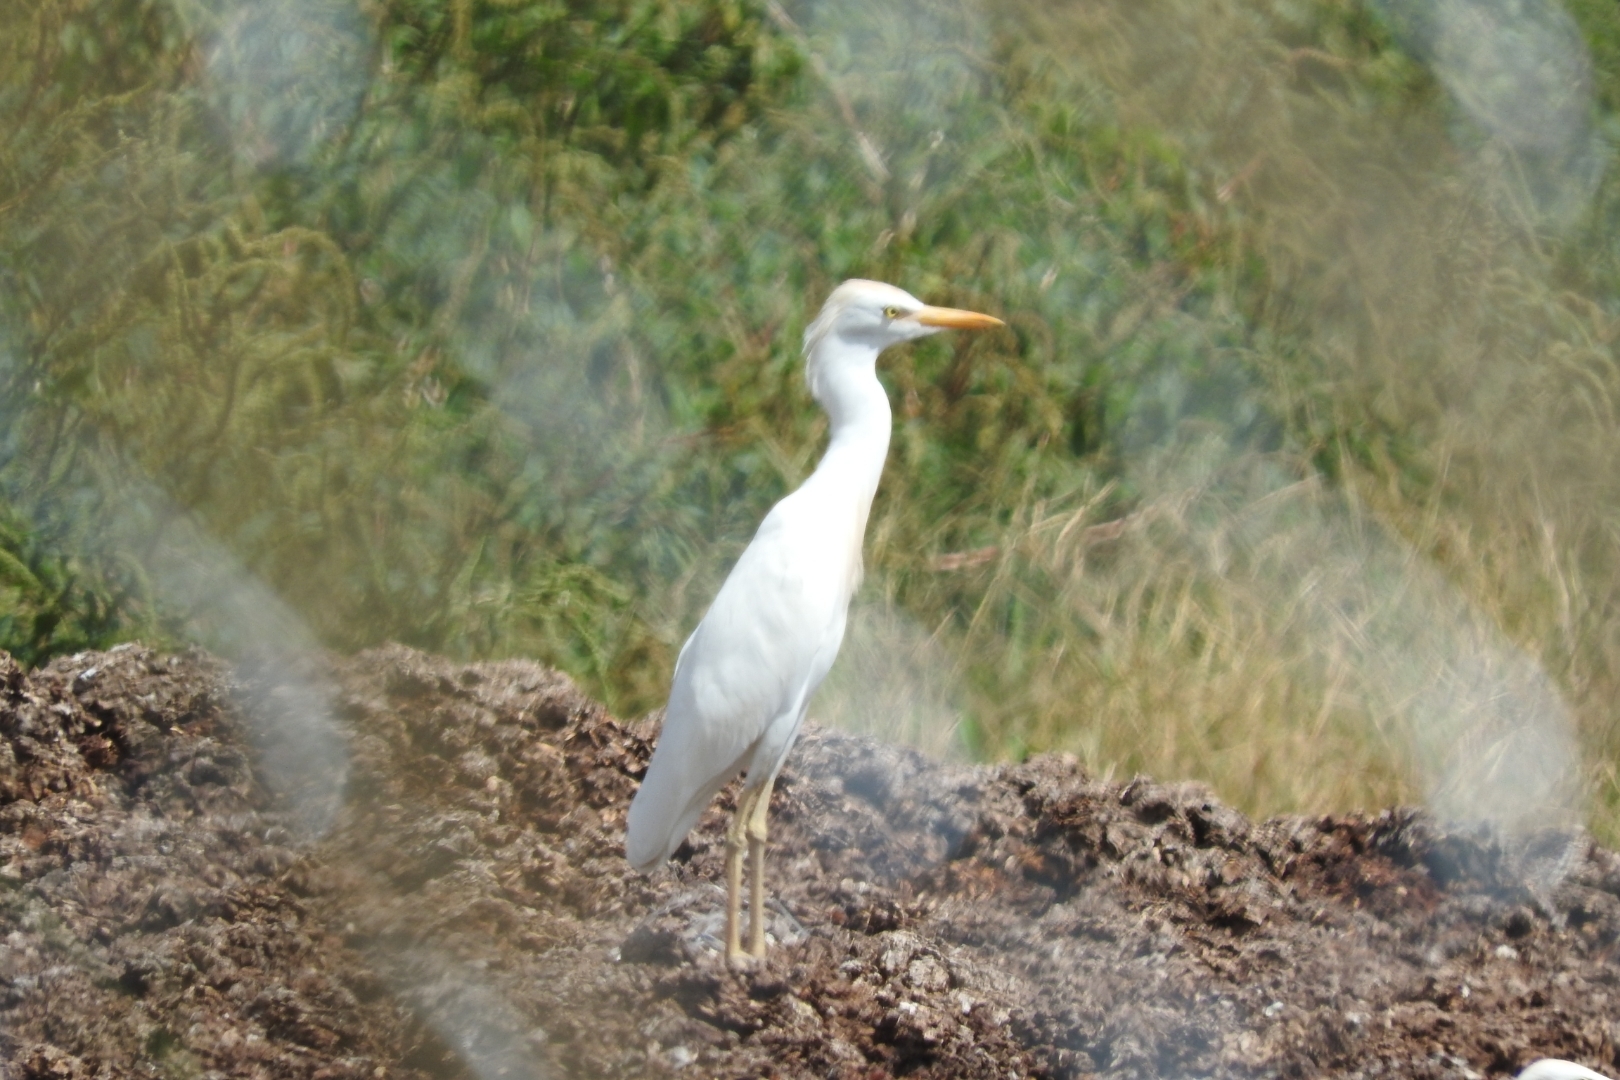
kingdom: Animalia
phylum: Chordata
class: Aves
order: Pelecaniformes
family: Ardeidae
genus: Bubulcus
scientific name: Bubulcus ibis
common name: Cattle egret
